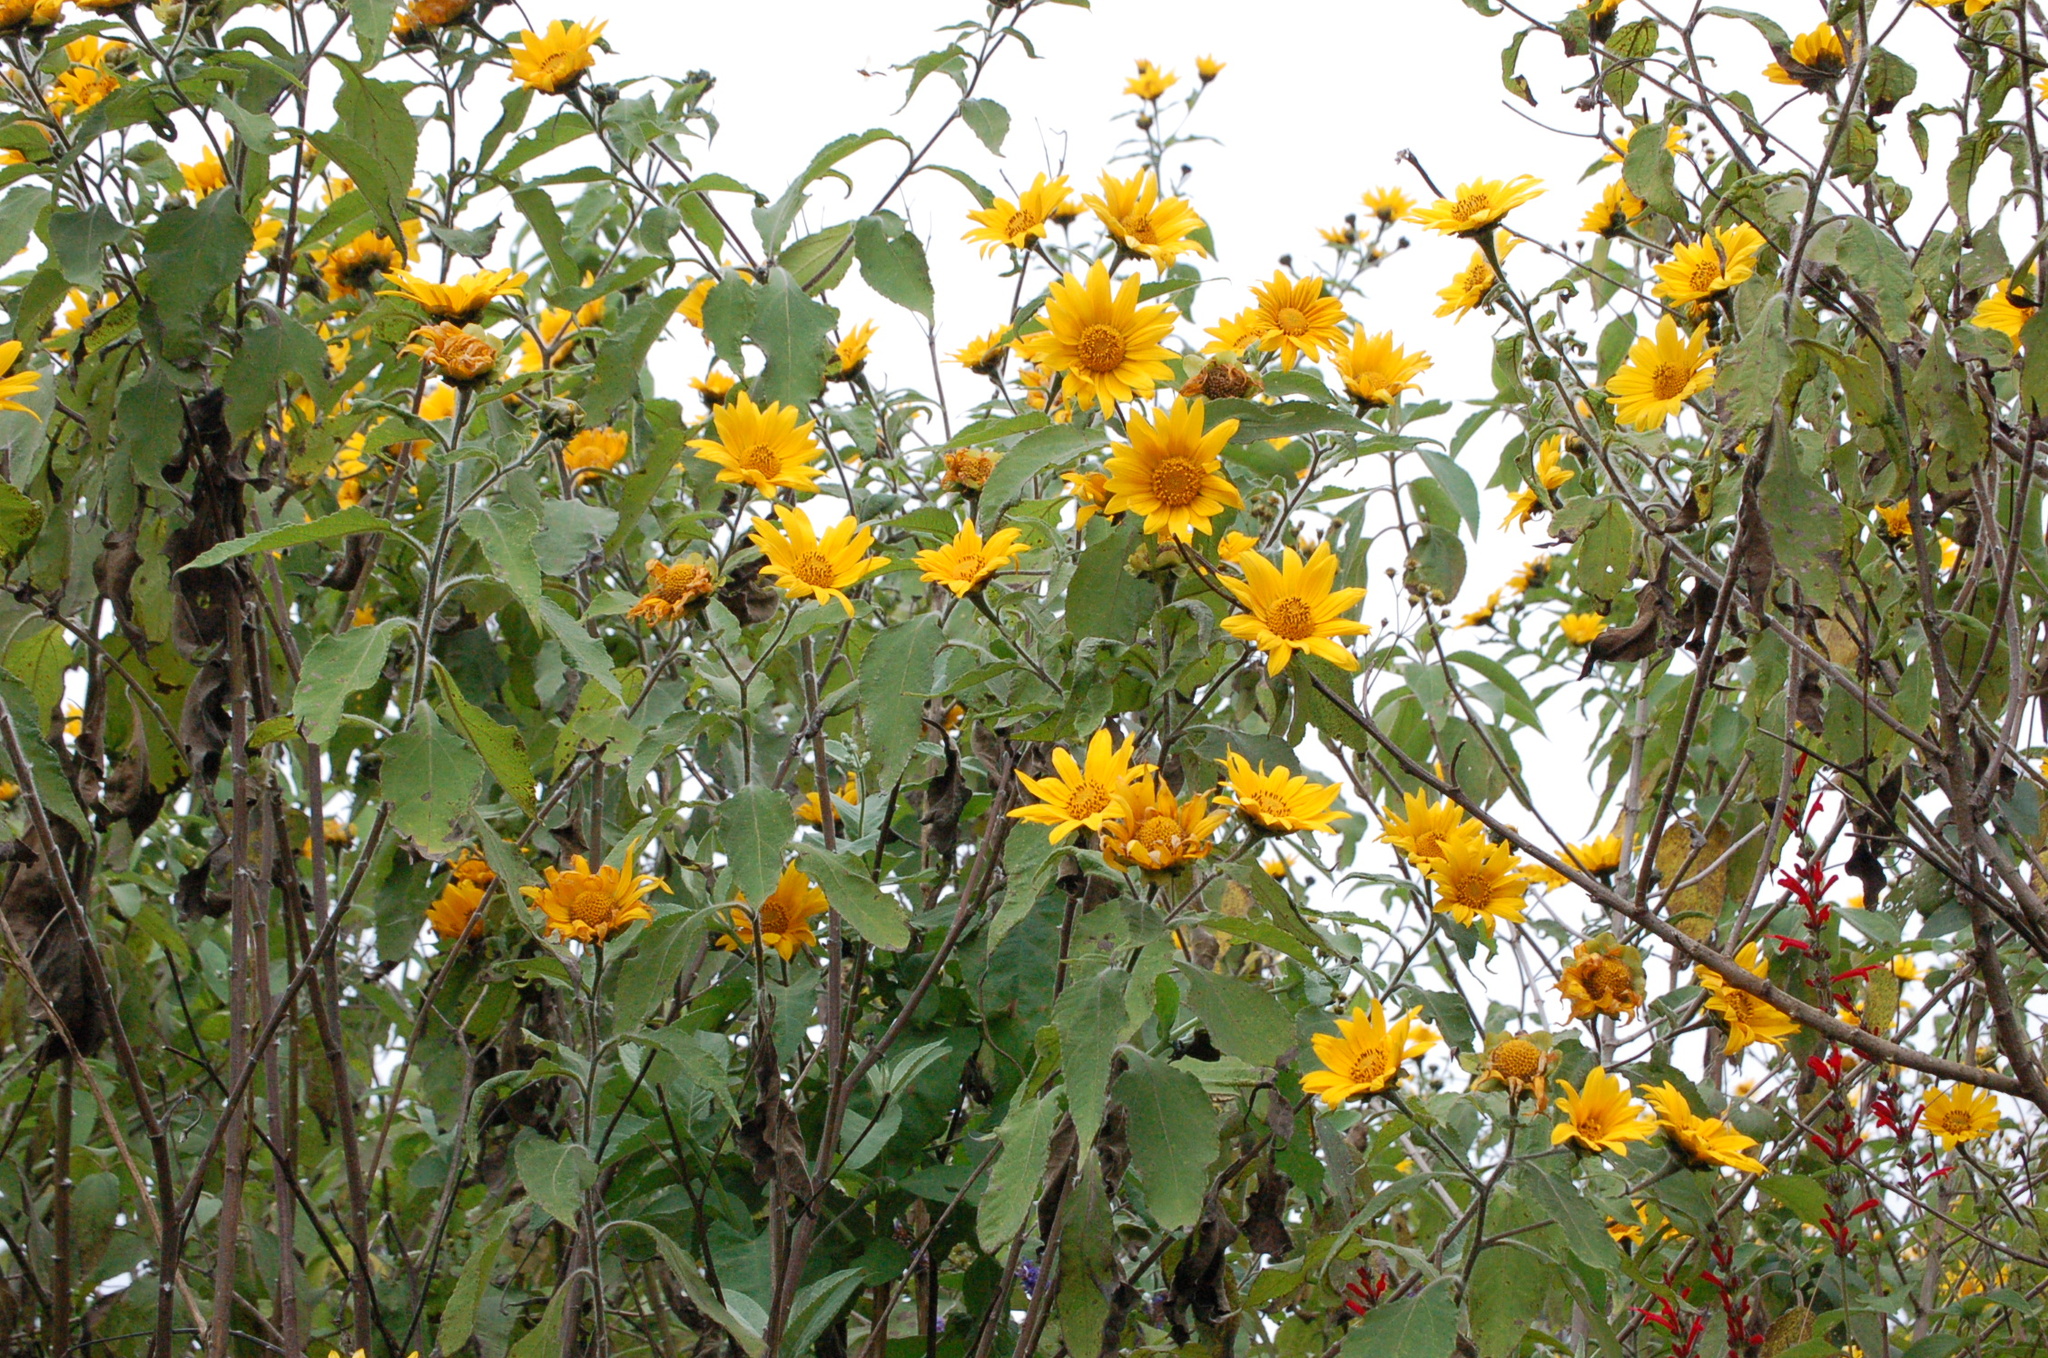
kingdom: Plantae
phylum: Tracheophyta
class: Magnoliopsida
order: Asterales
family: Asteraceae
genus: Tithonia
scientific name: Tithonia tubaeformis
